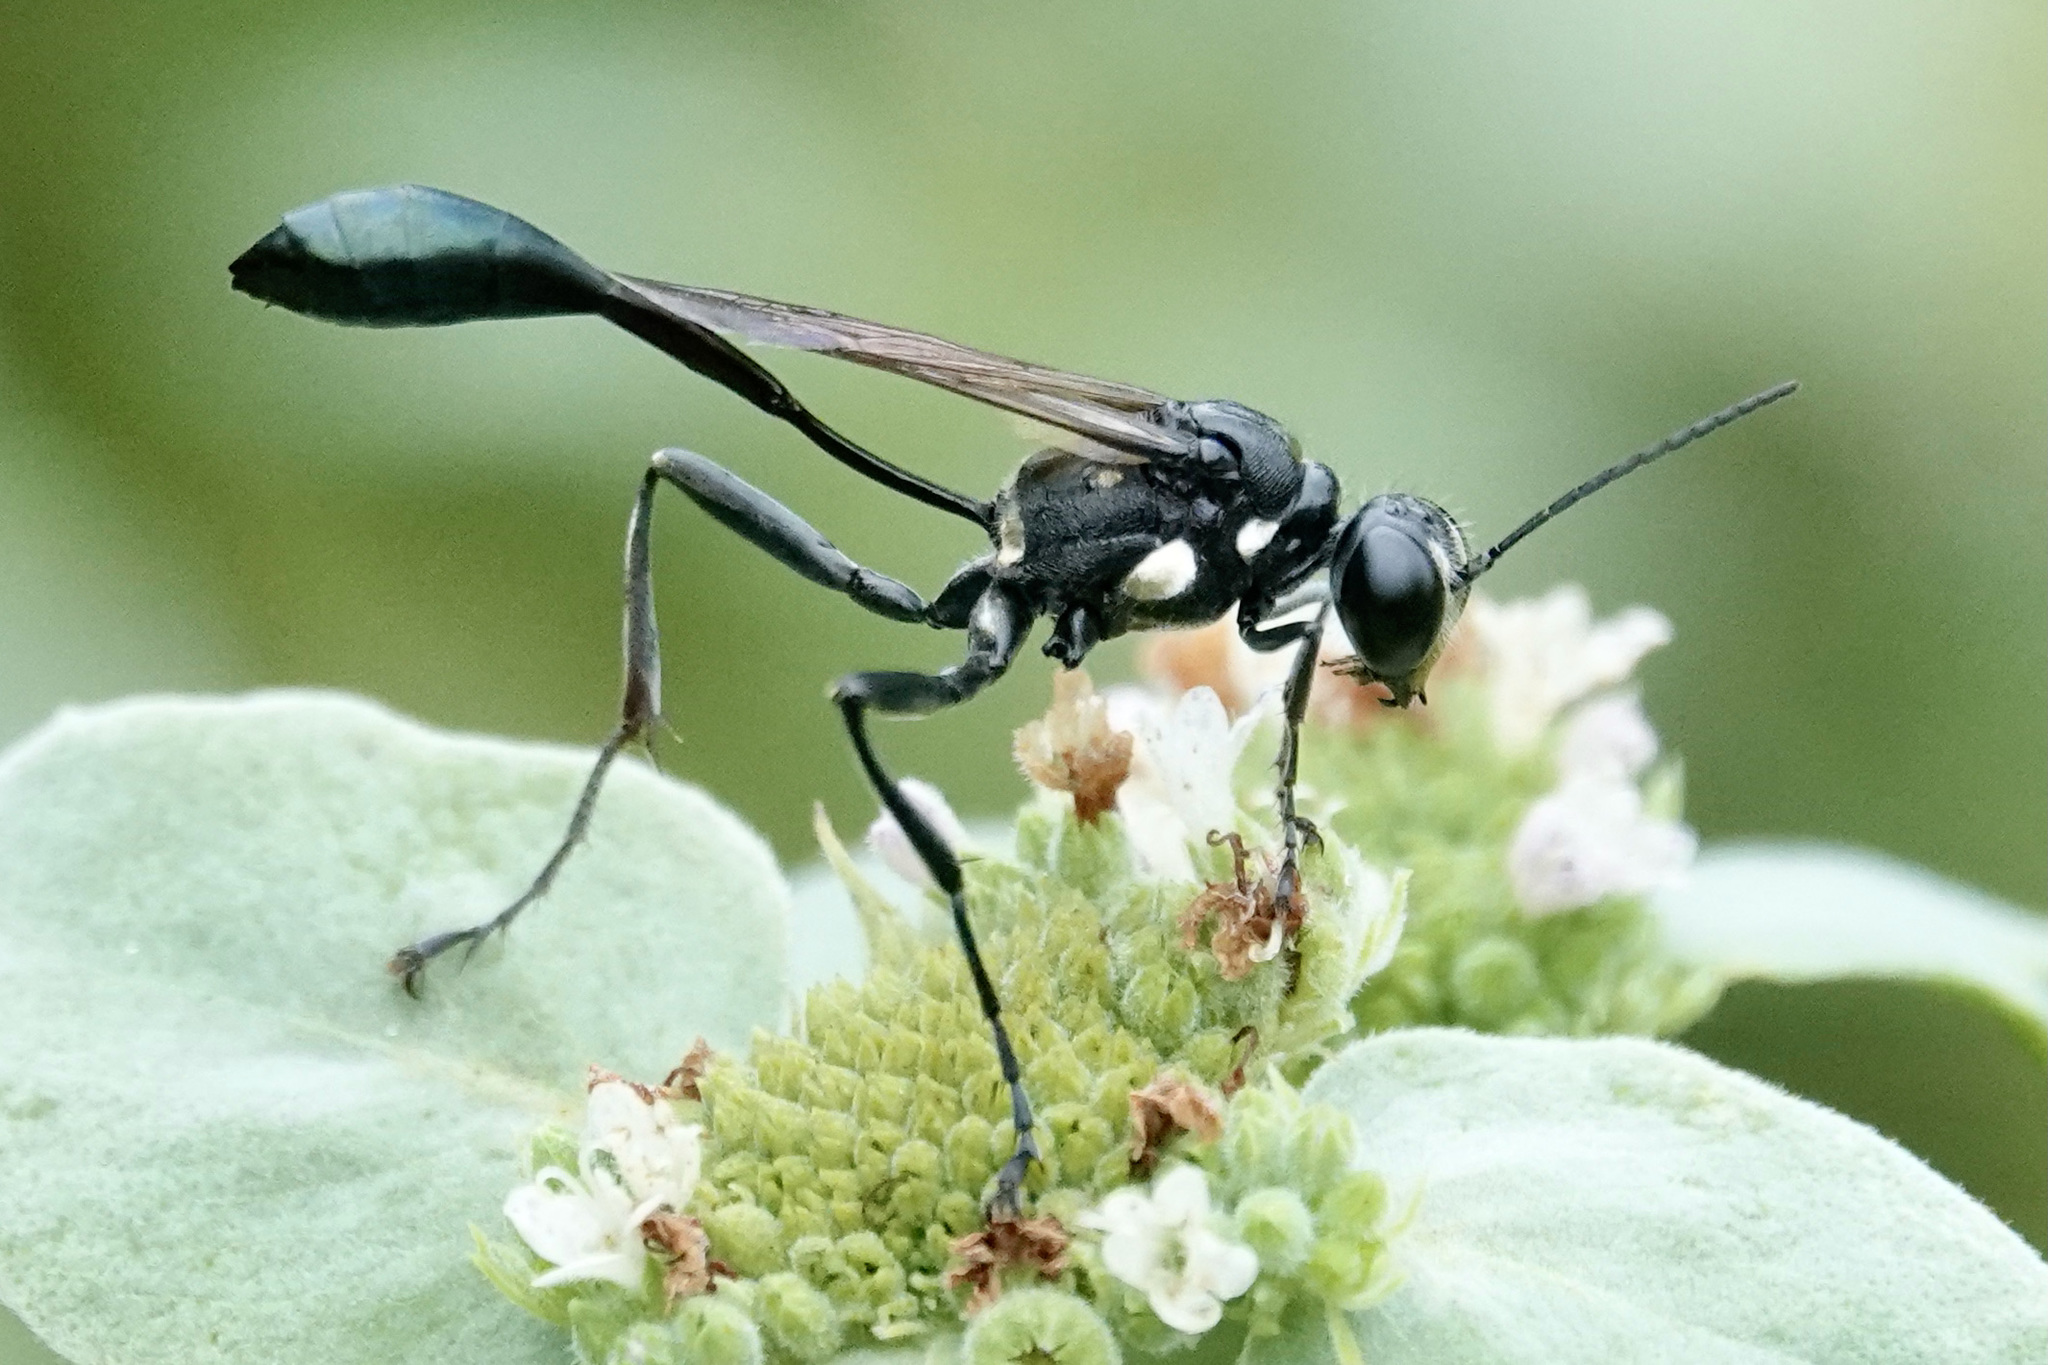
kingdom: Animalia
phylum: Arthropoda
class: Insecta
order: Hymenoptera
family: Sphecidae
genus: Eremnophila
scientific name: Eremnophila aureonotata
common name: Gold-marked thread-waisted wasp
